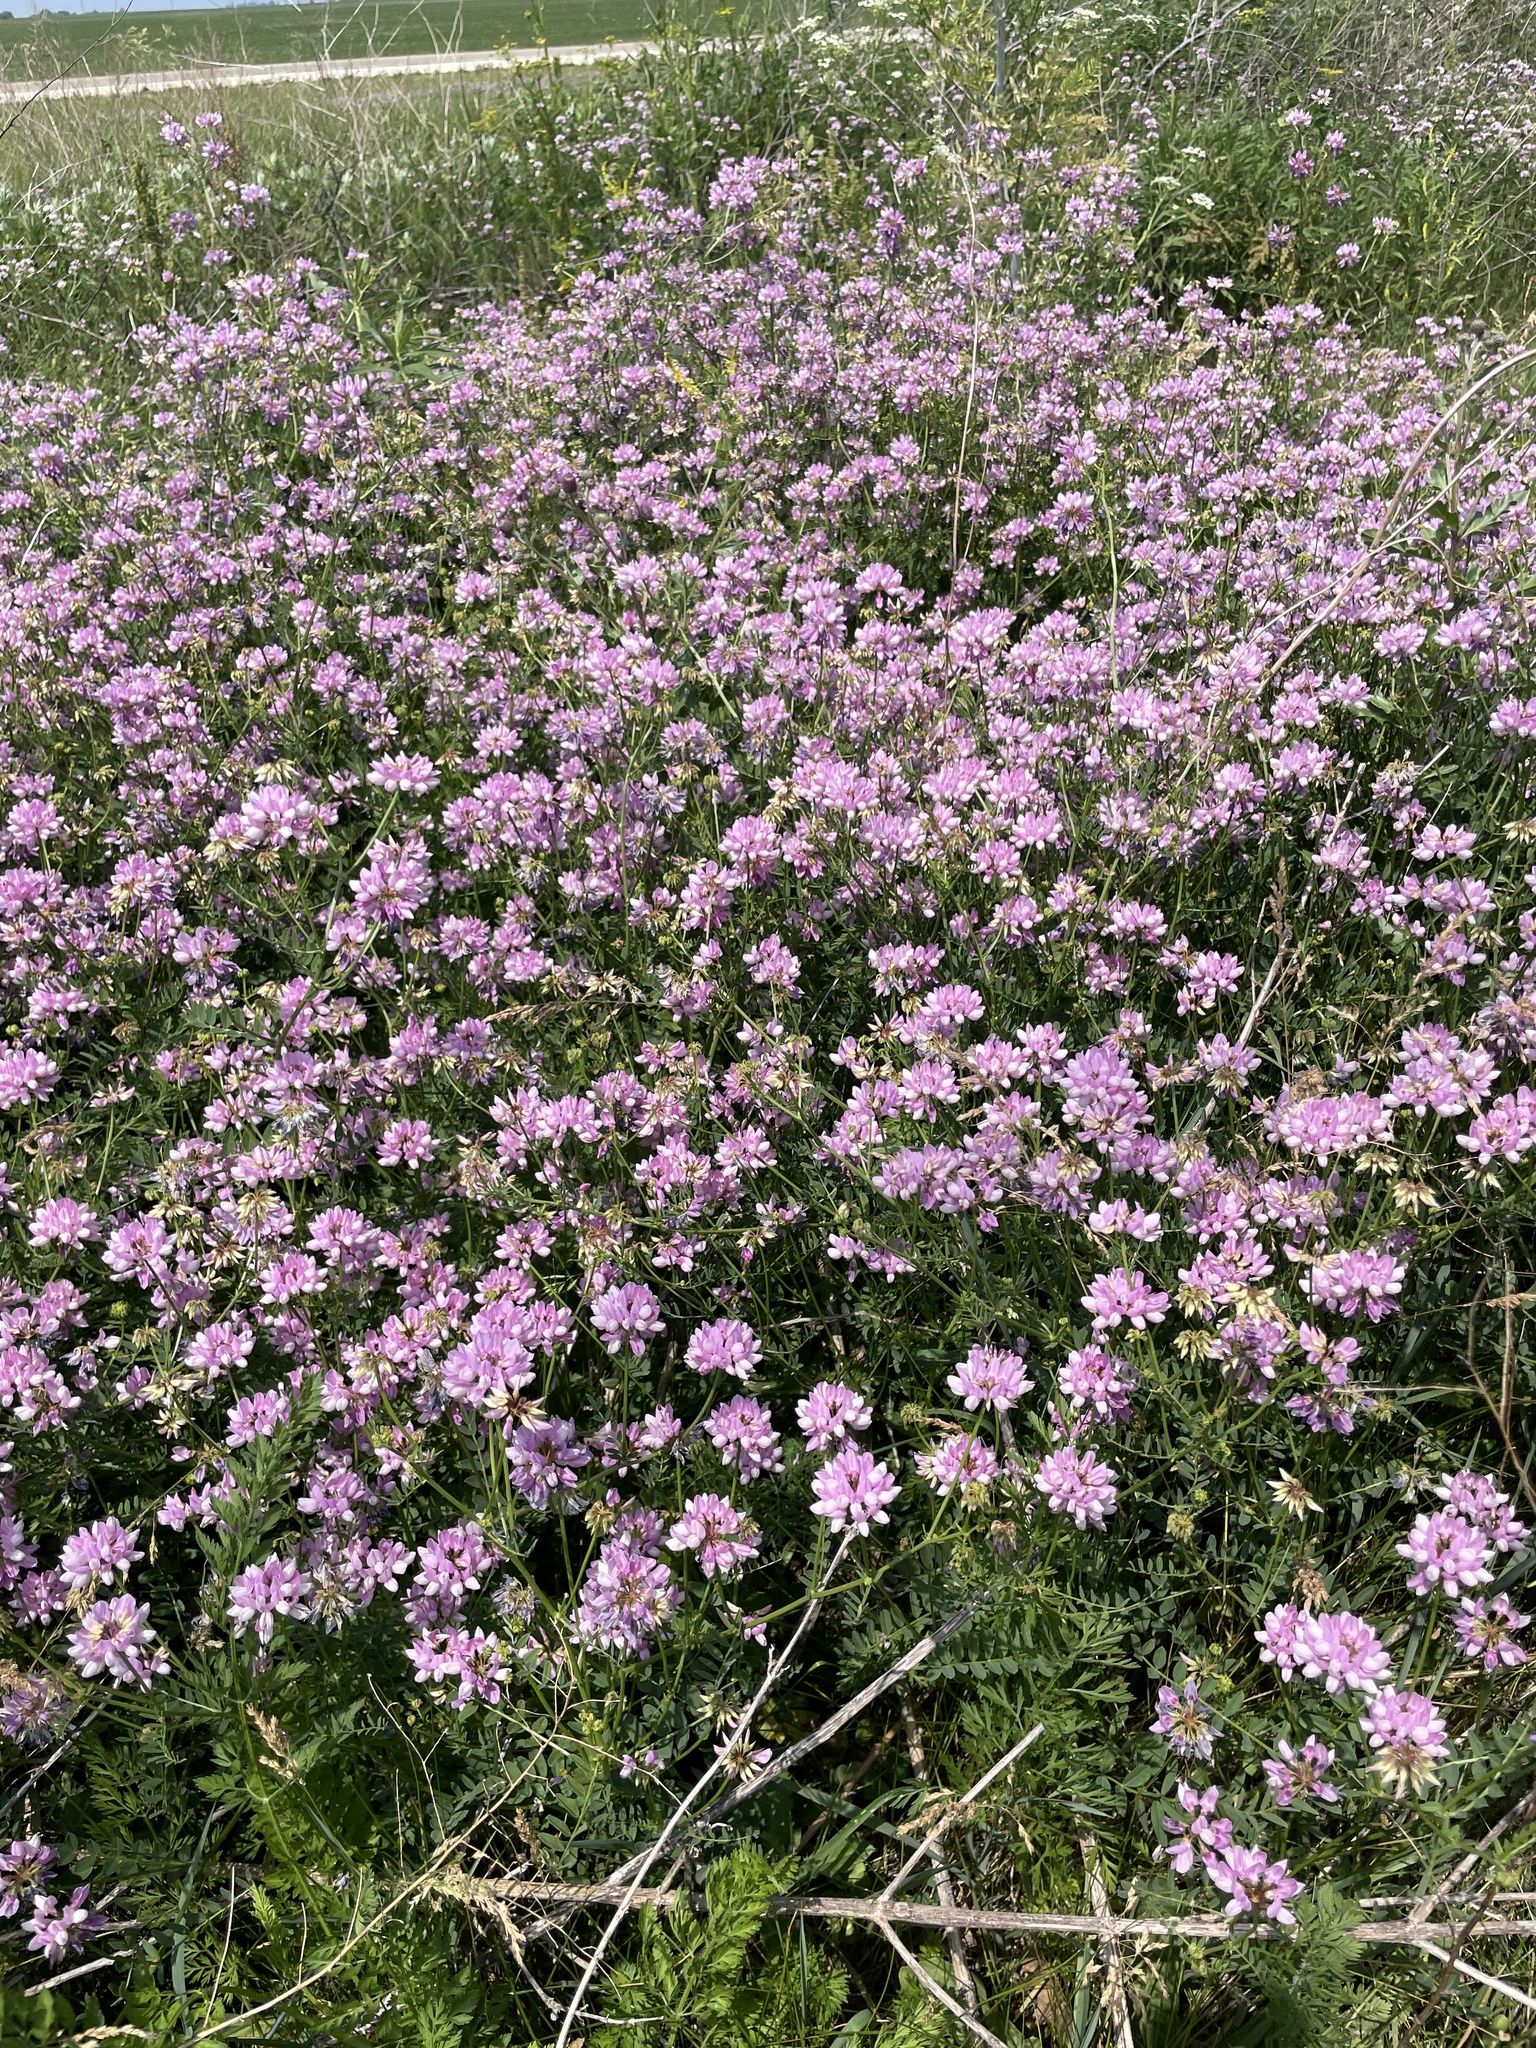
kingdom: Plantae
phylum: Tracheophyta
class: Magnoliopsida
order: Fabales
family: Fabaceae
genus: Coronilla
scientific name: Coronilla varia
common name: Crownvetch
